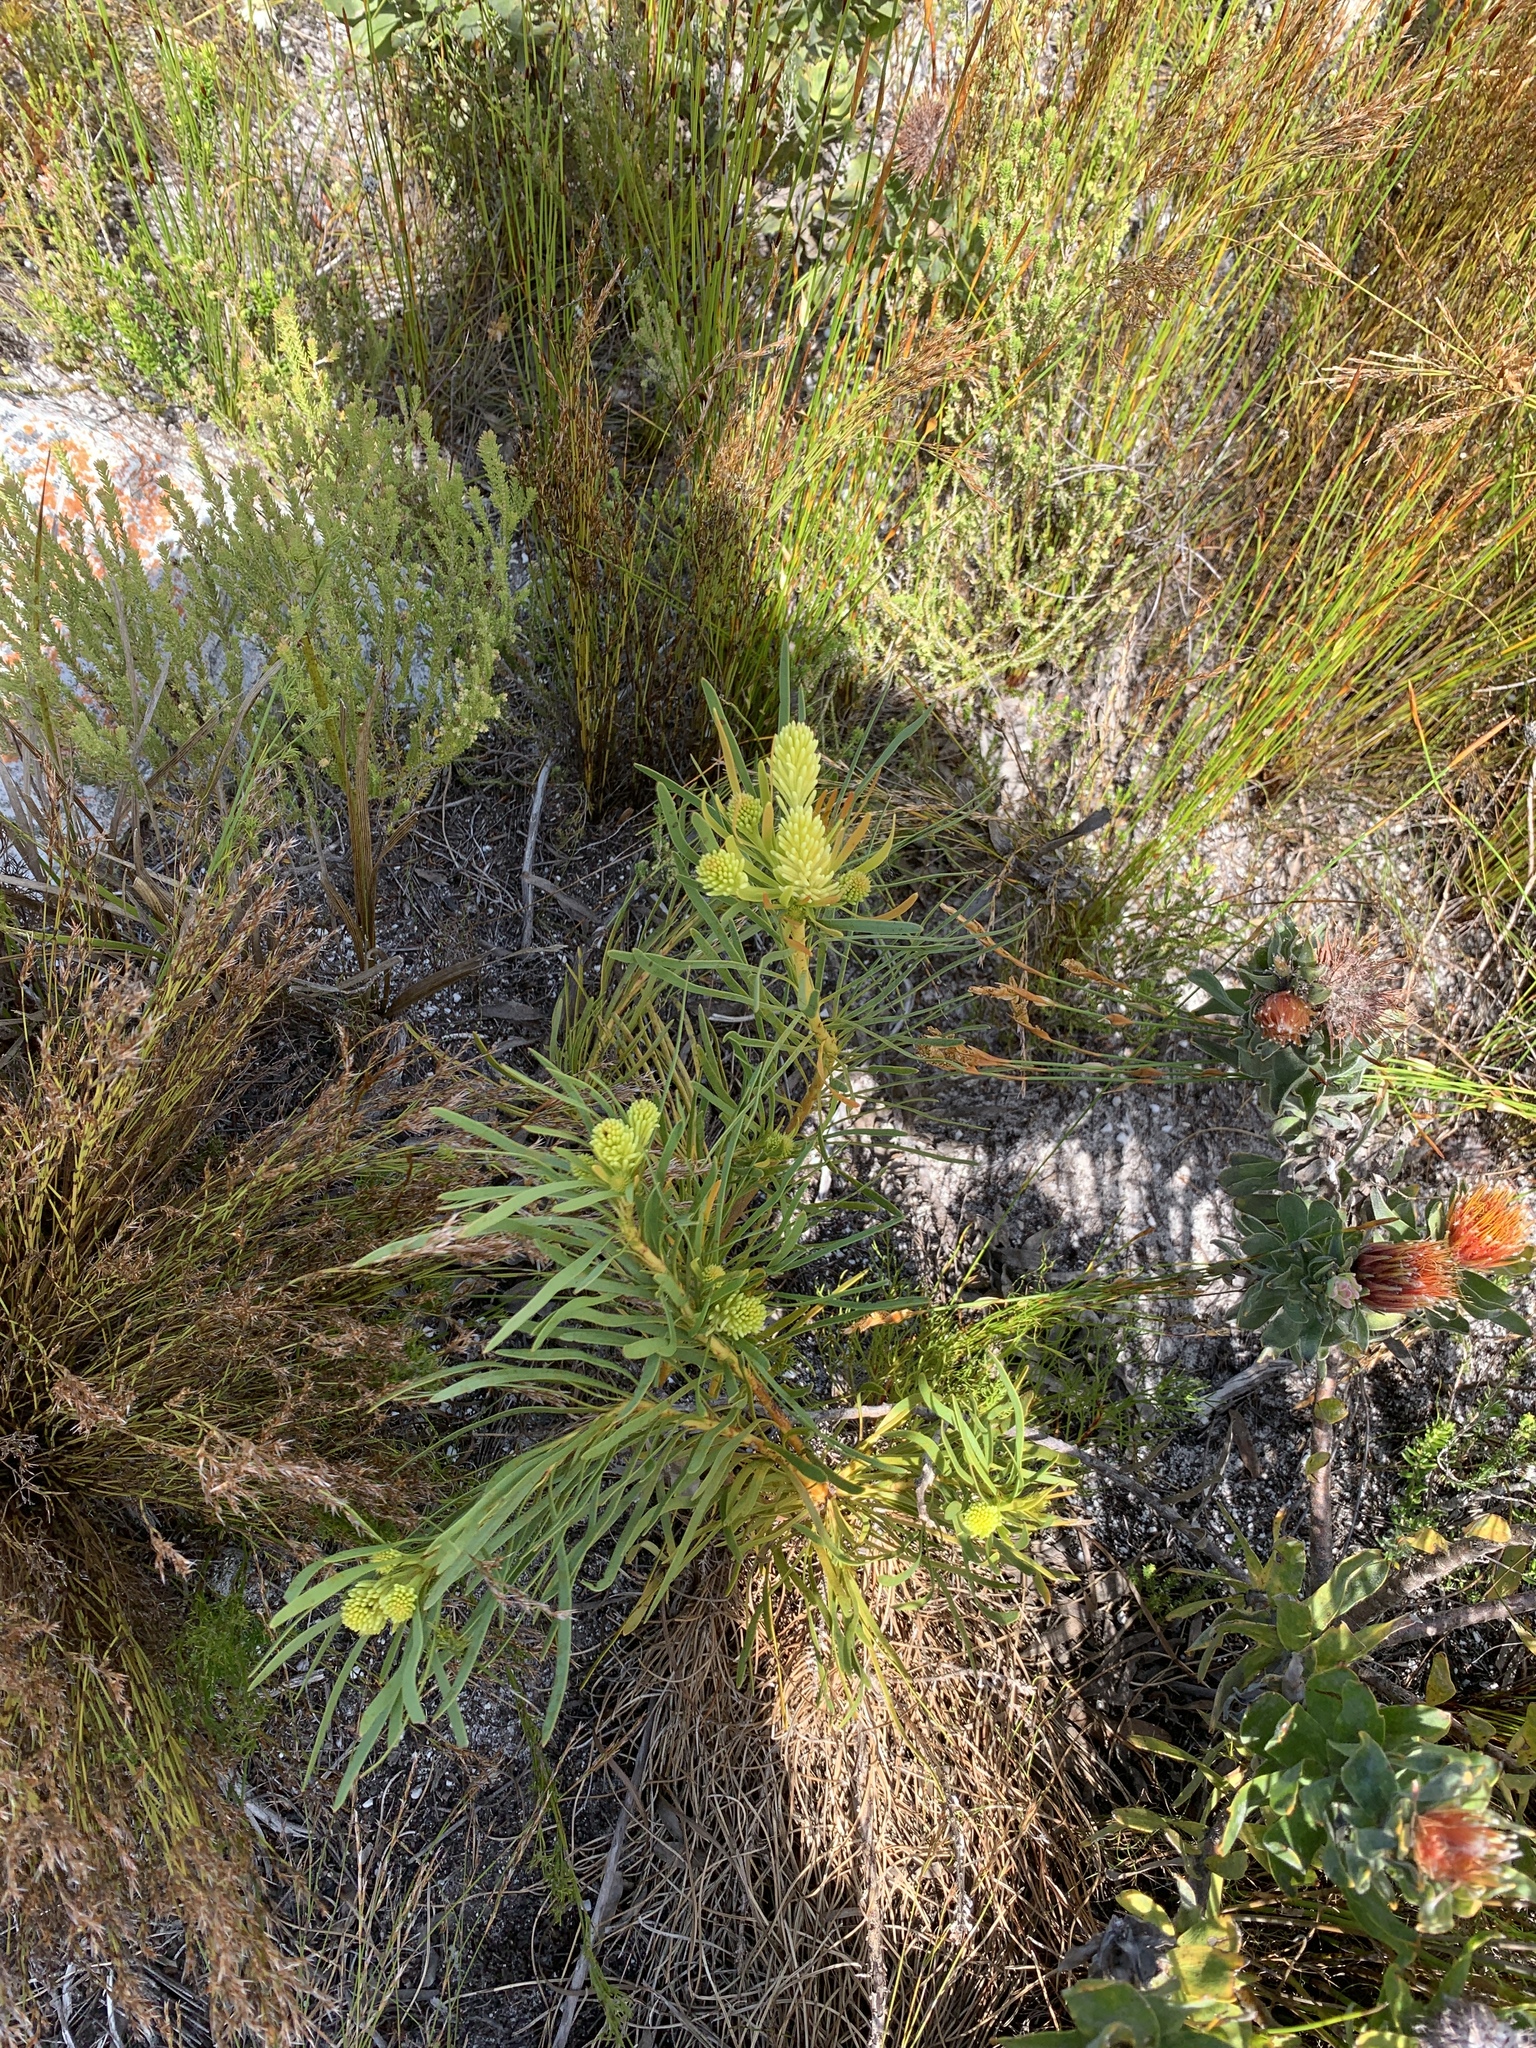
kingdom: Plantae
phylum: Tracheophyta
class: Magnoliopsida
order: Proteales
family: Proteaceae
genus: Aulax
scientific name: Aulax umbellata
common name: Broad-leaf featherbush
